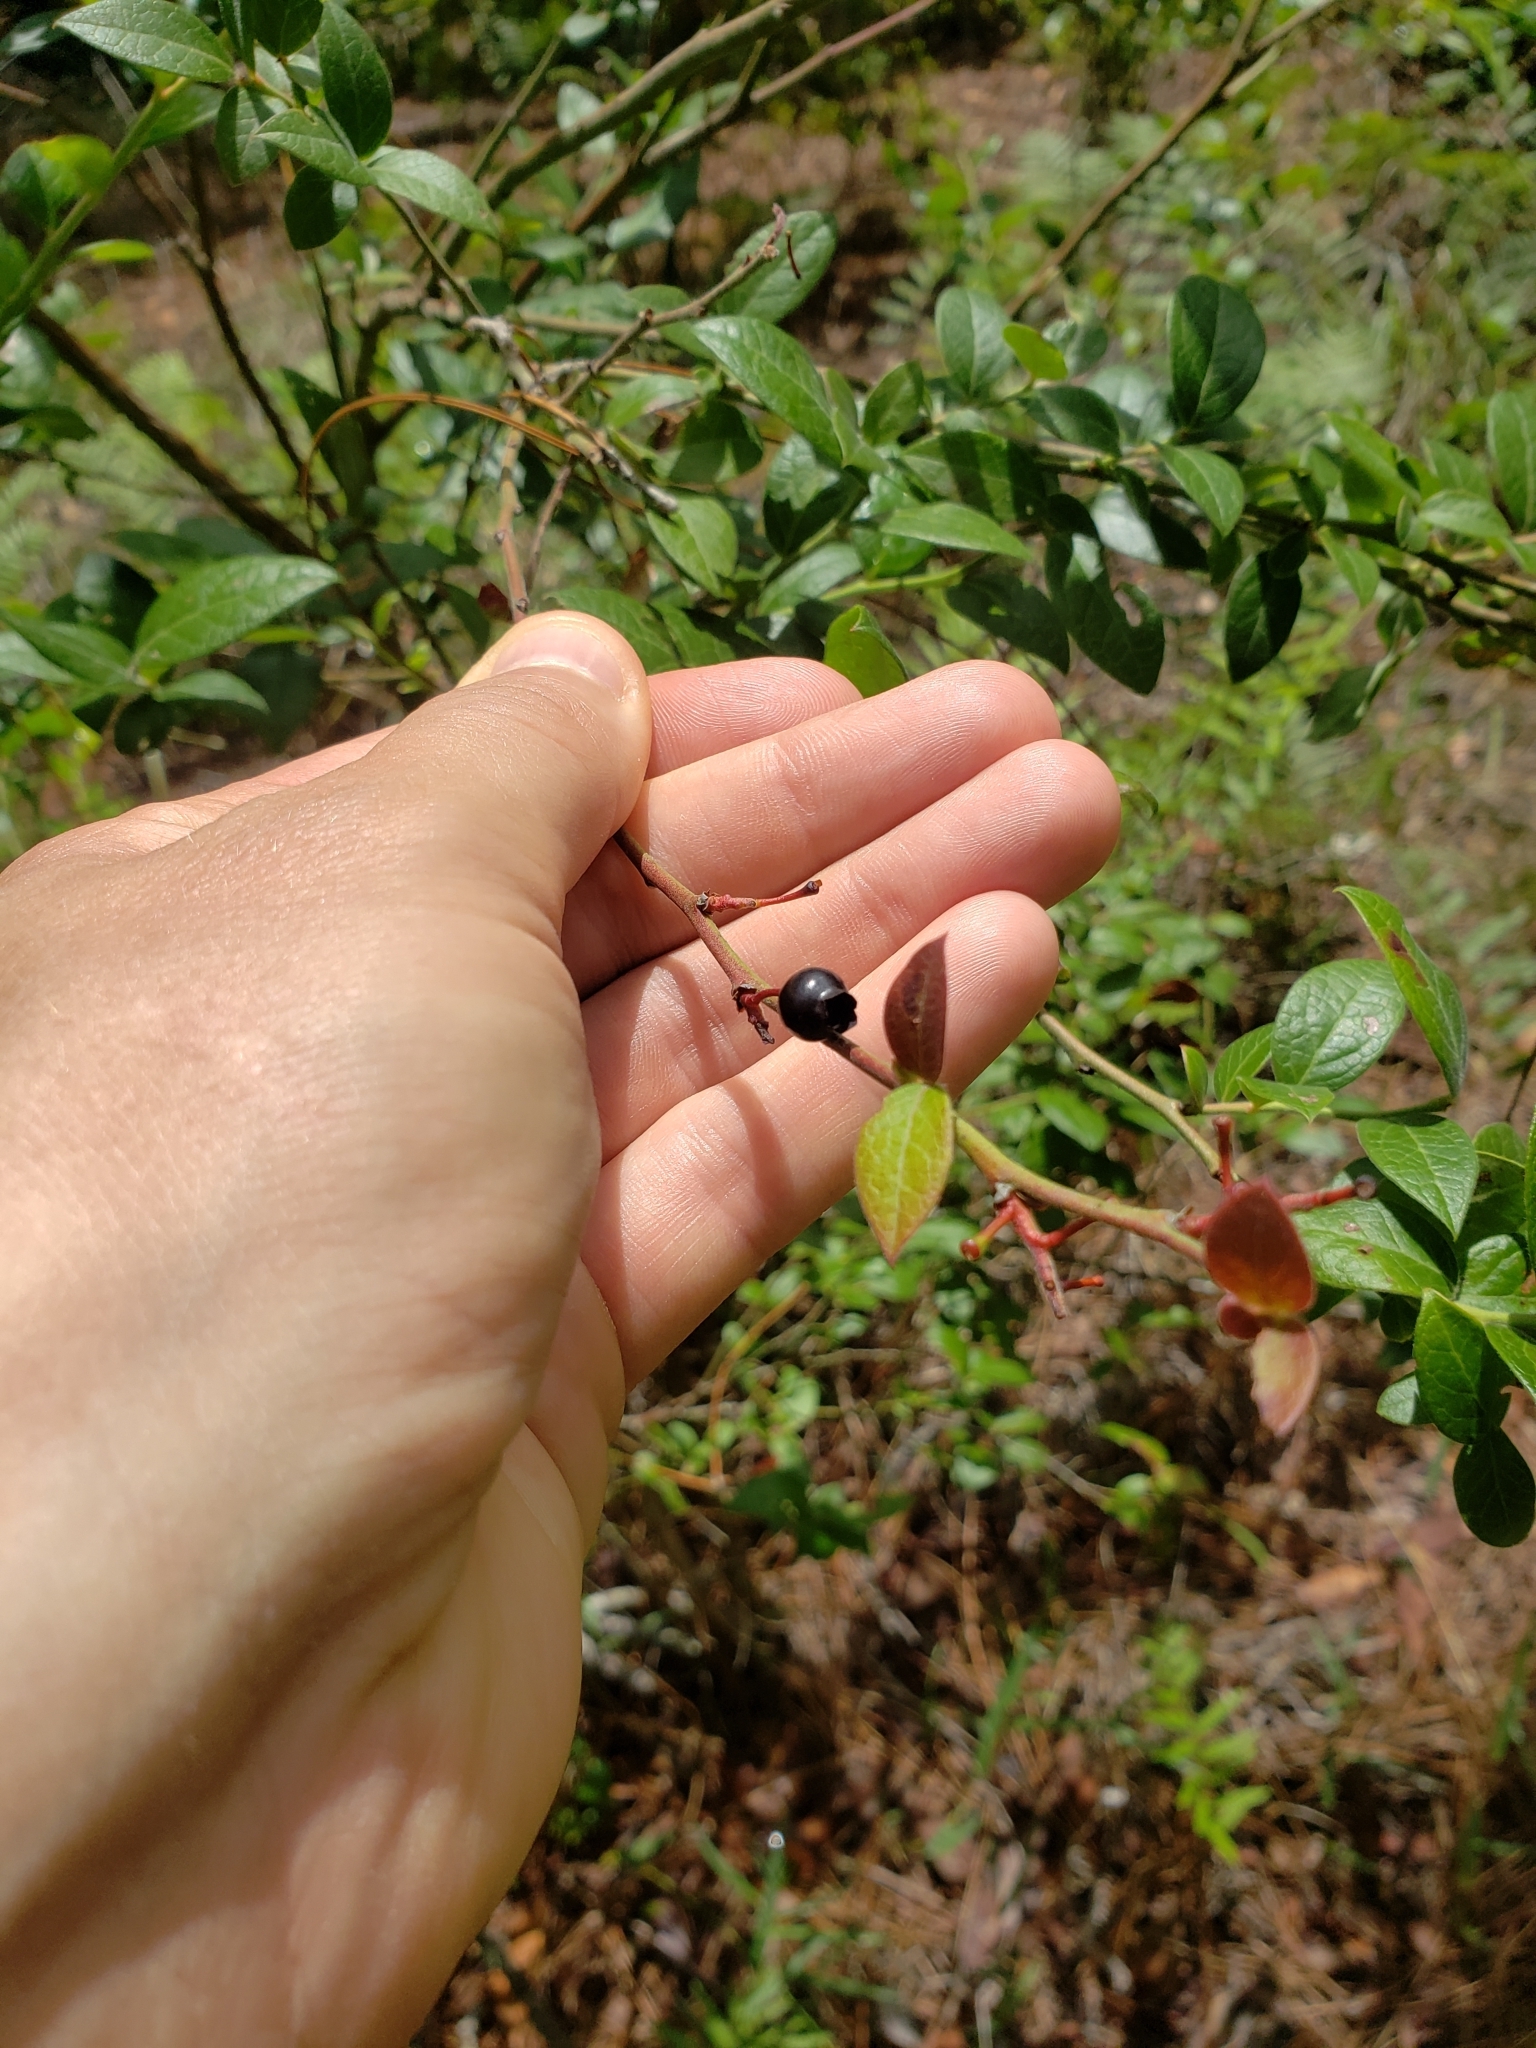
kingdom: Plantae
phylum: Tracheophyta
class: Magnoliopsida
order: Ericales
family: Ericaceae
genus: Vaccinium
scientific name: Vaccinium corymbosum
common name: Blueberry
